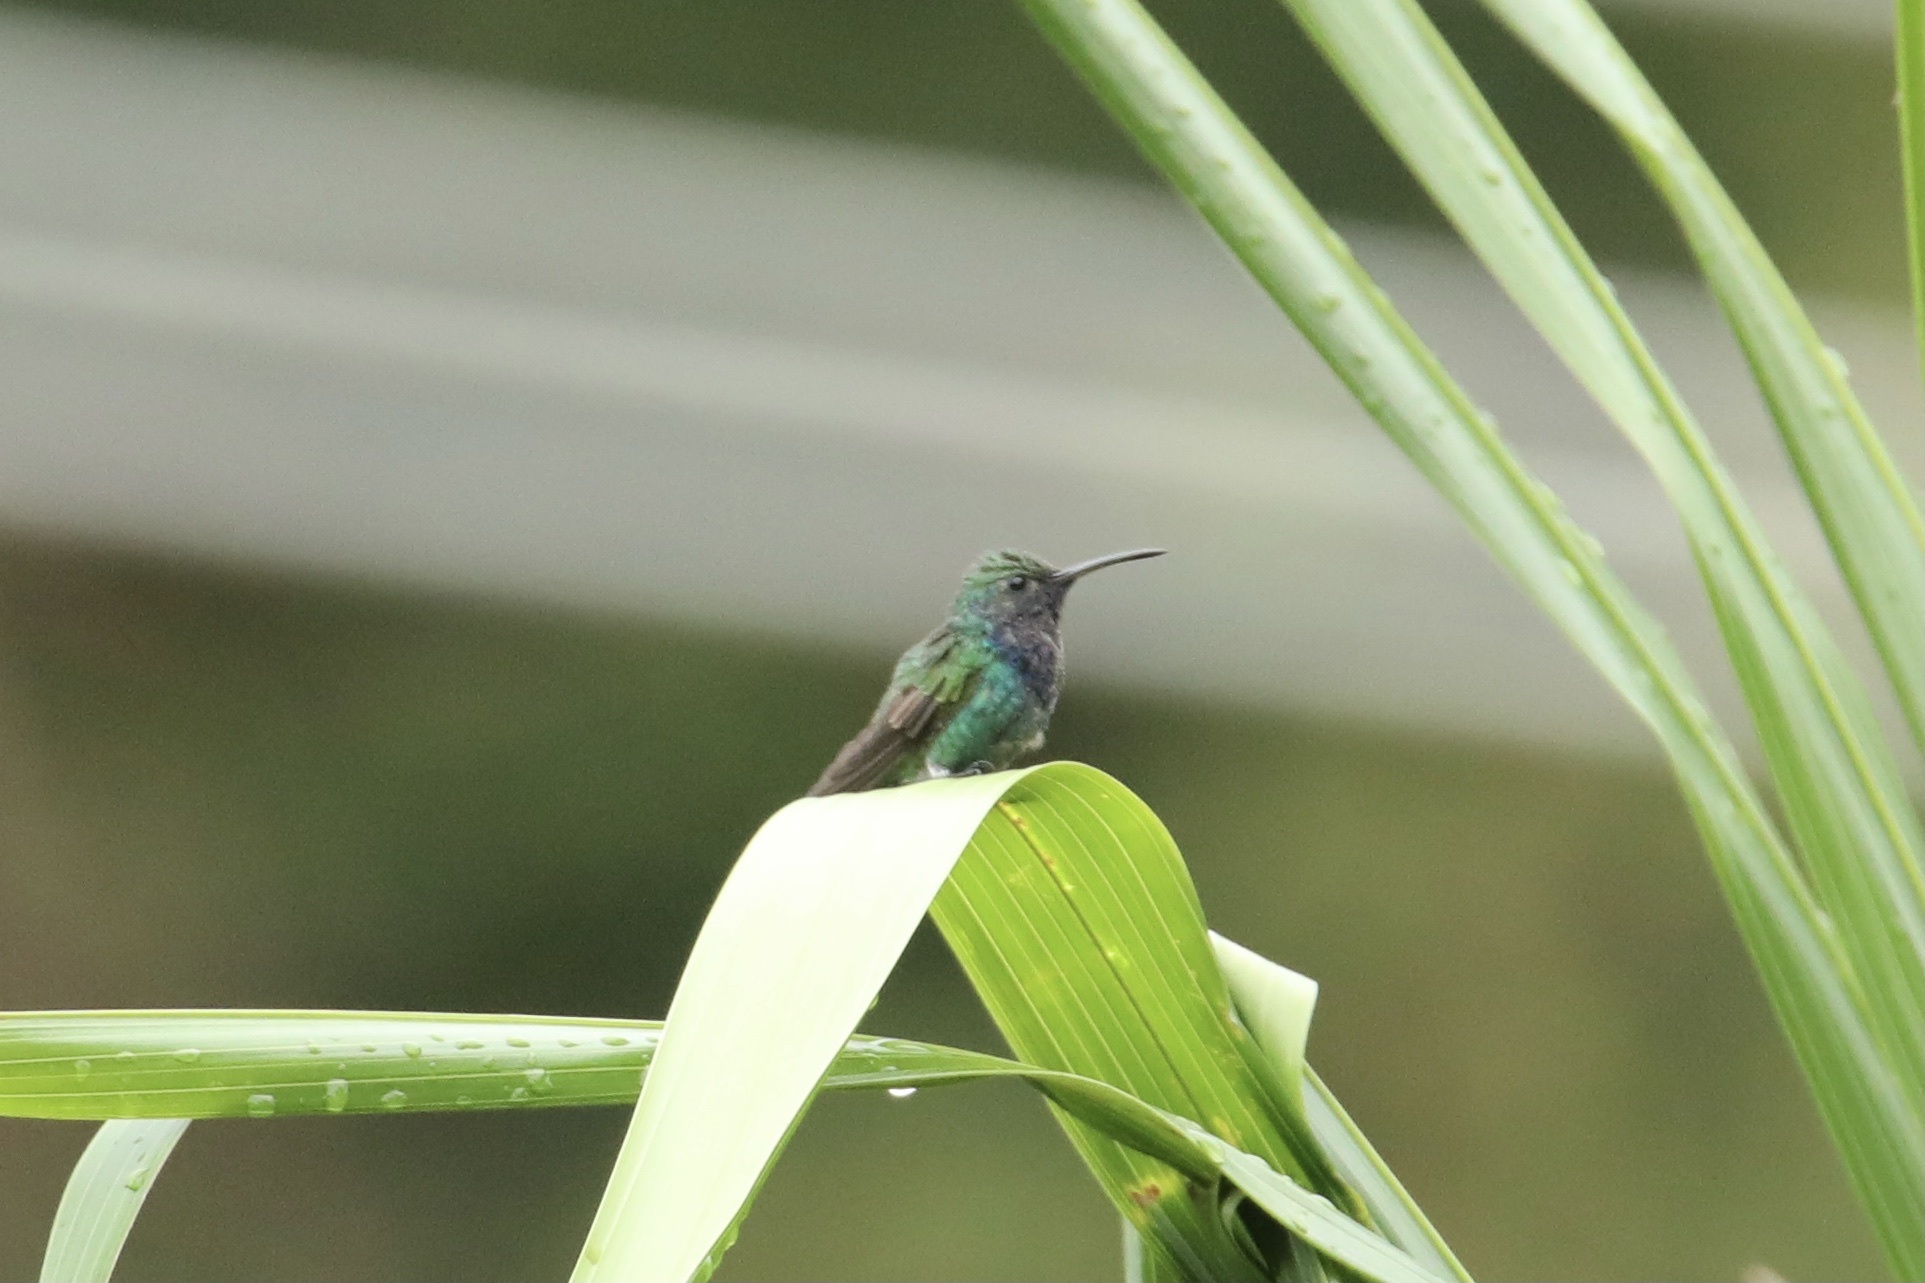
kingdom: Animalia
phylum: Chordata
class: Aves
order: Apodiformes
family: Trochilidae
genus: Chrysuronia
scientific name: Chrysuronia coeruleogularis
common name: Sapphire-throated hummingbird
